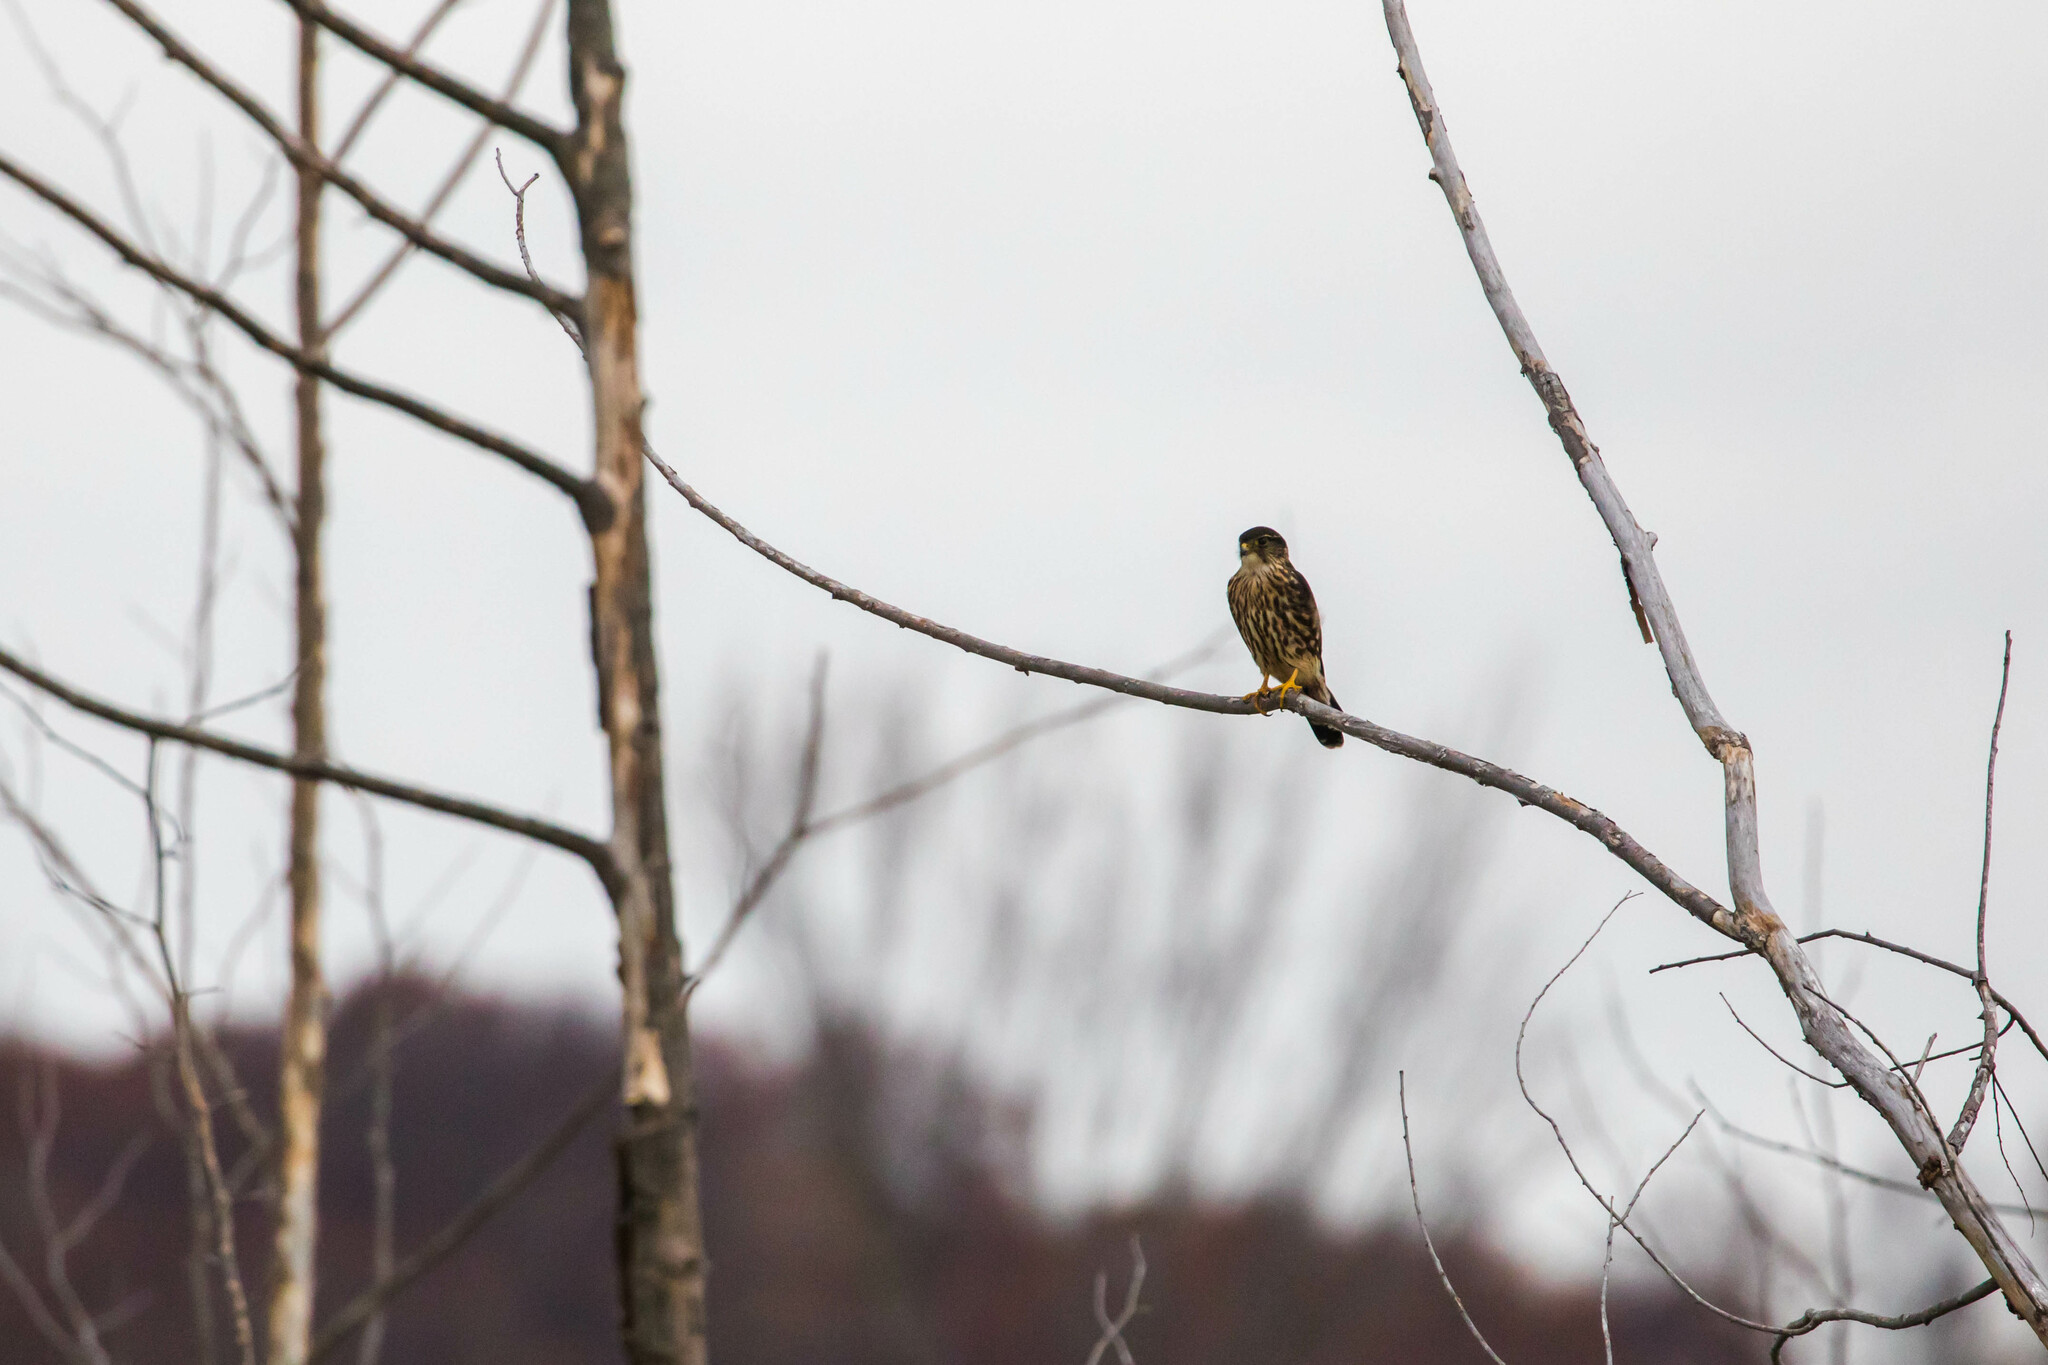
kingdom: Animalia
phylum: Chordata
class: Aves
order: Falconiformes
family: Falconidae
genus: Falco
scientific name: Falco columbarius
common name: Merlin
